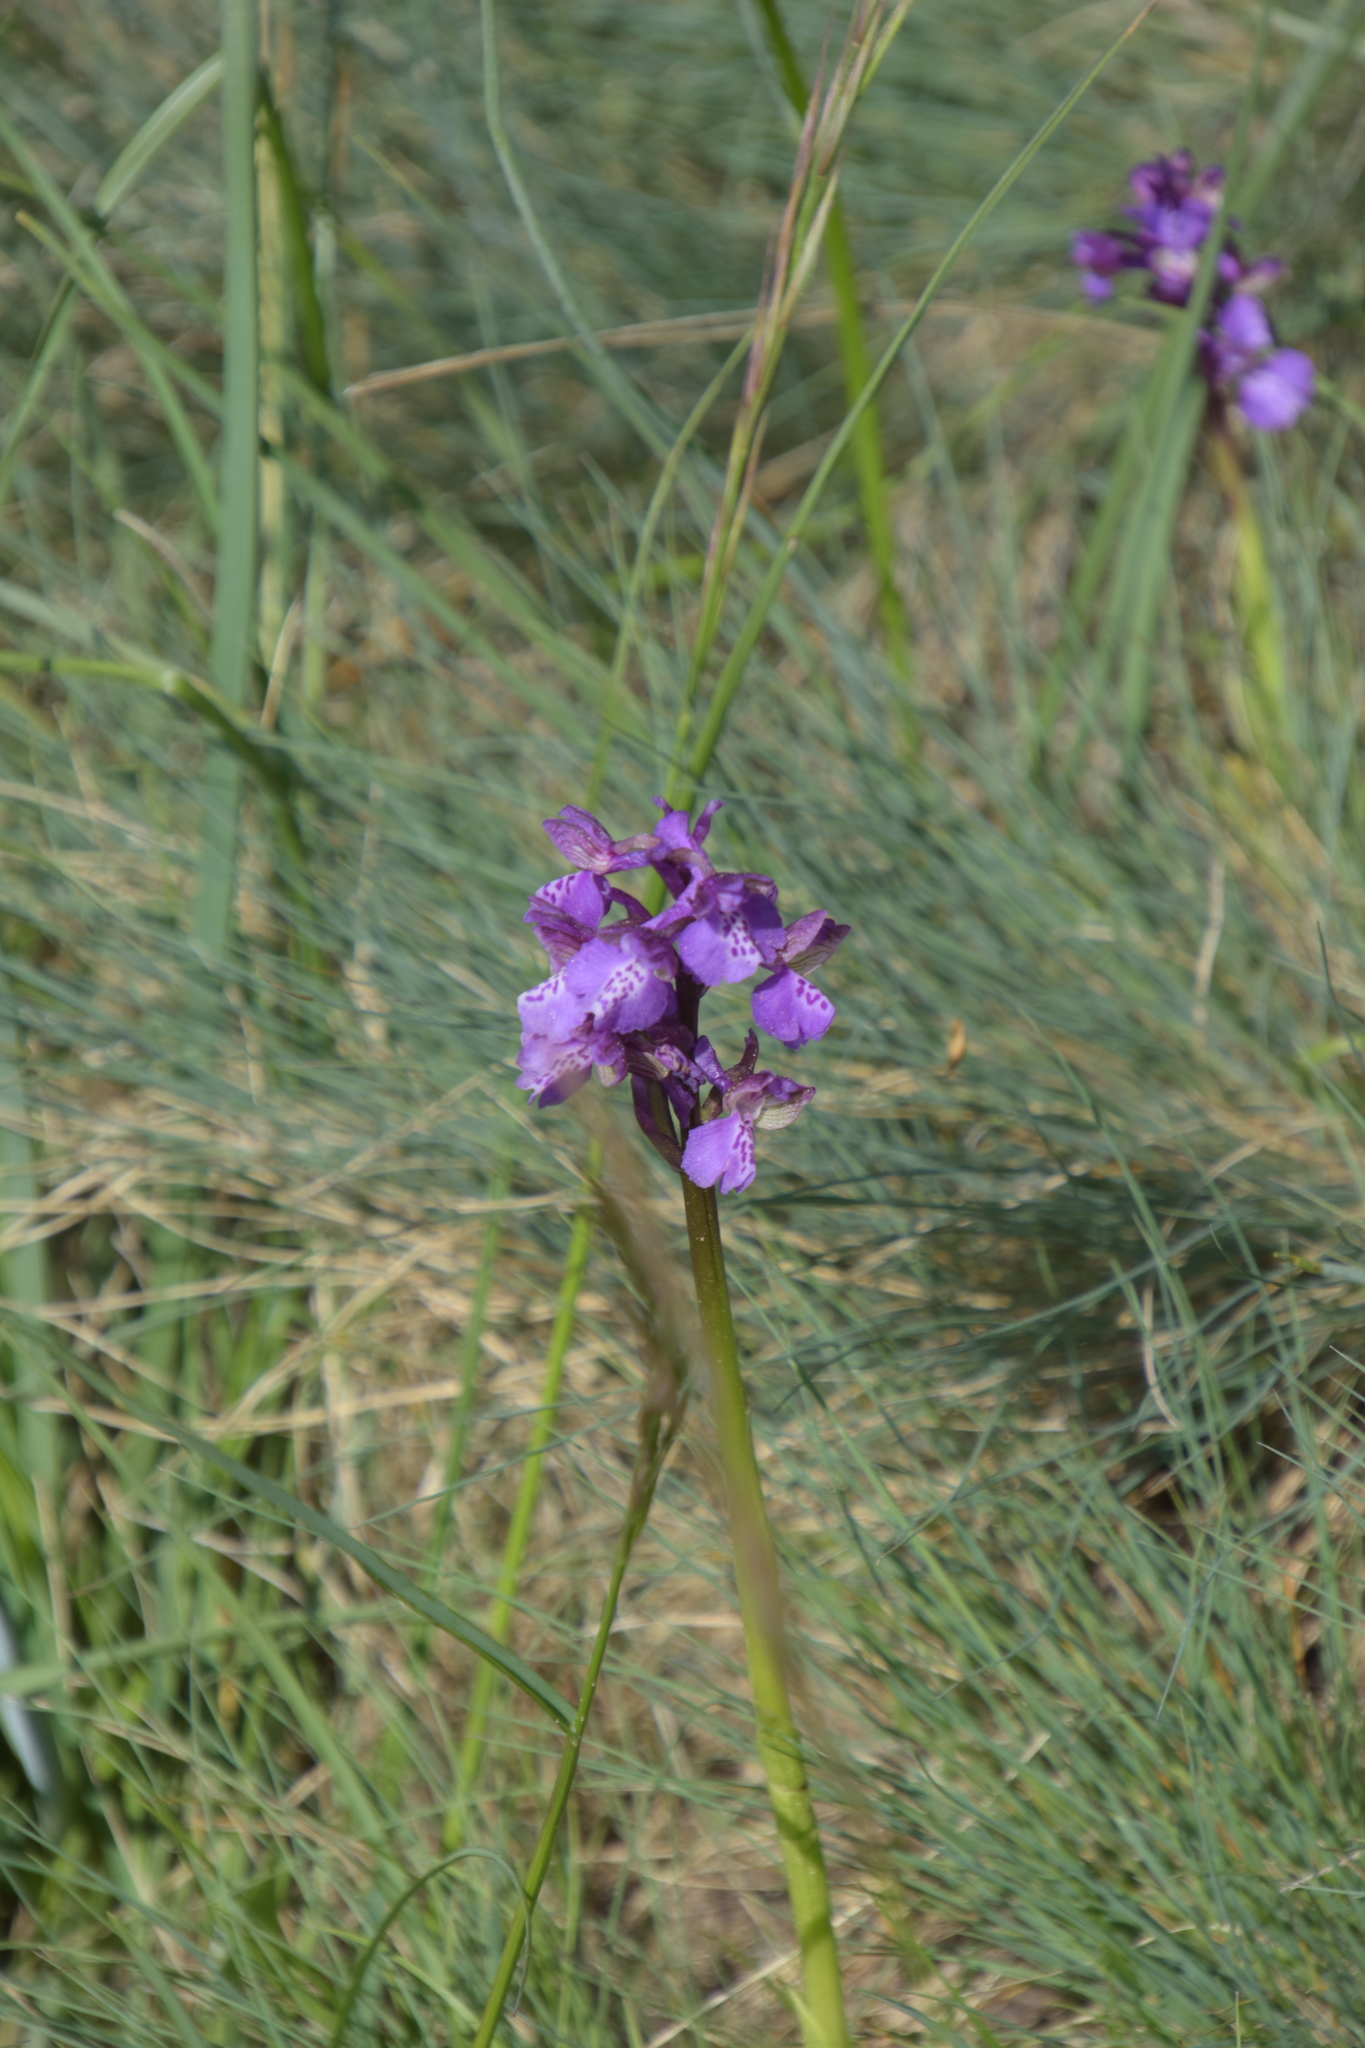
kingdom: Plantae
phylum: Tracheophyta
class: Liliopsida
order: Asparagales
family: Orchidaceae
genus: Anacamptis
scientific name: Anacamptis morio
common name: Green-winged orchid
